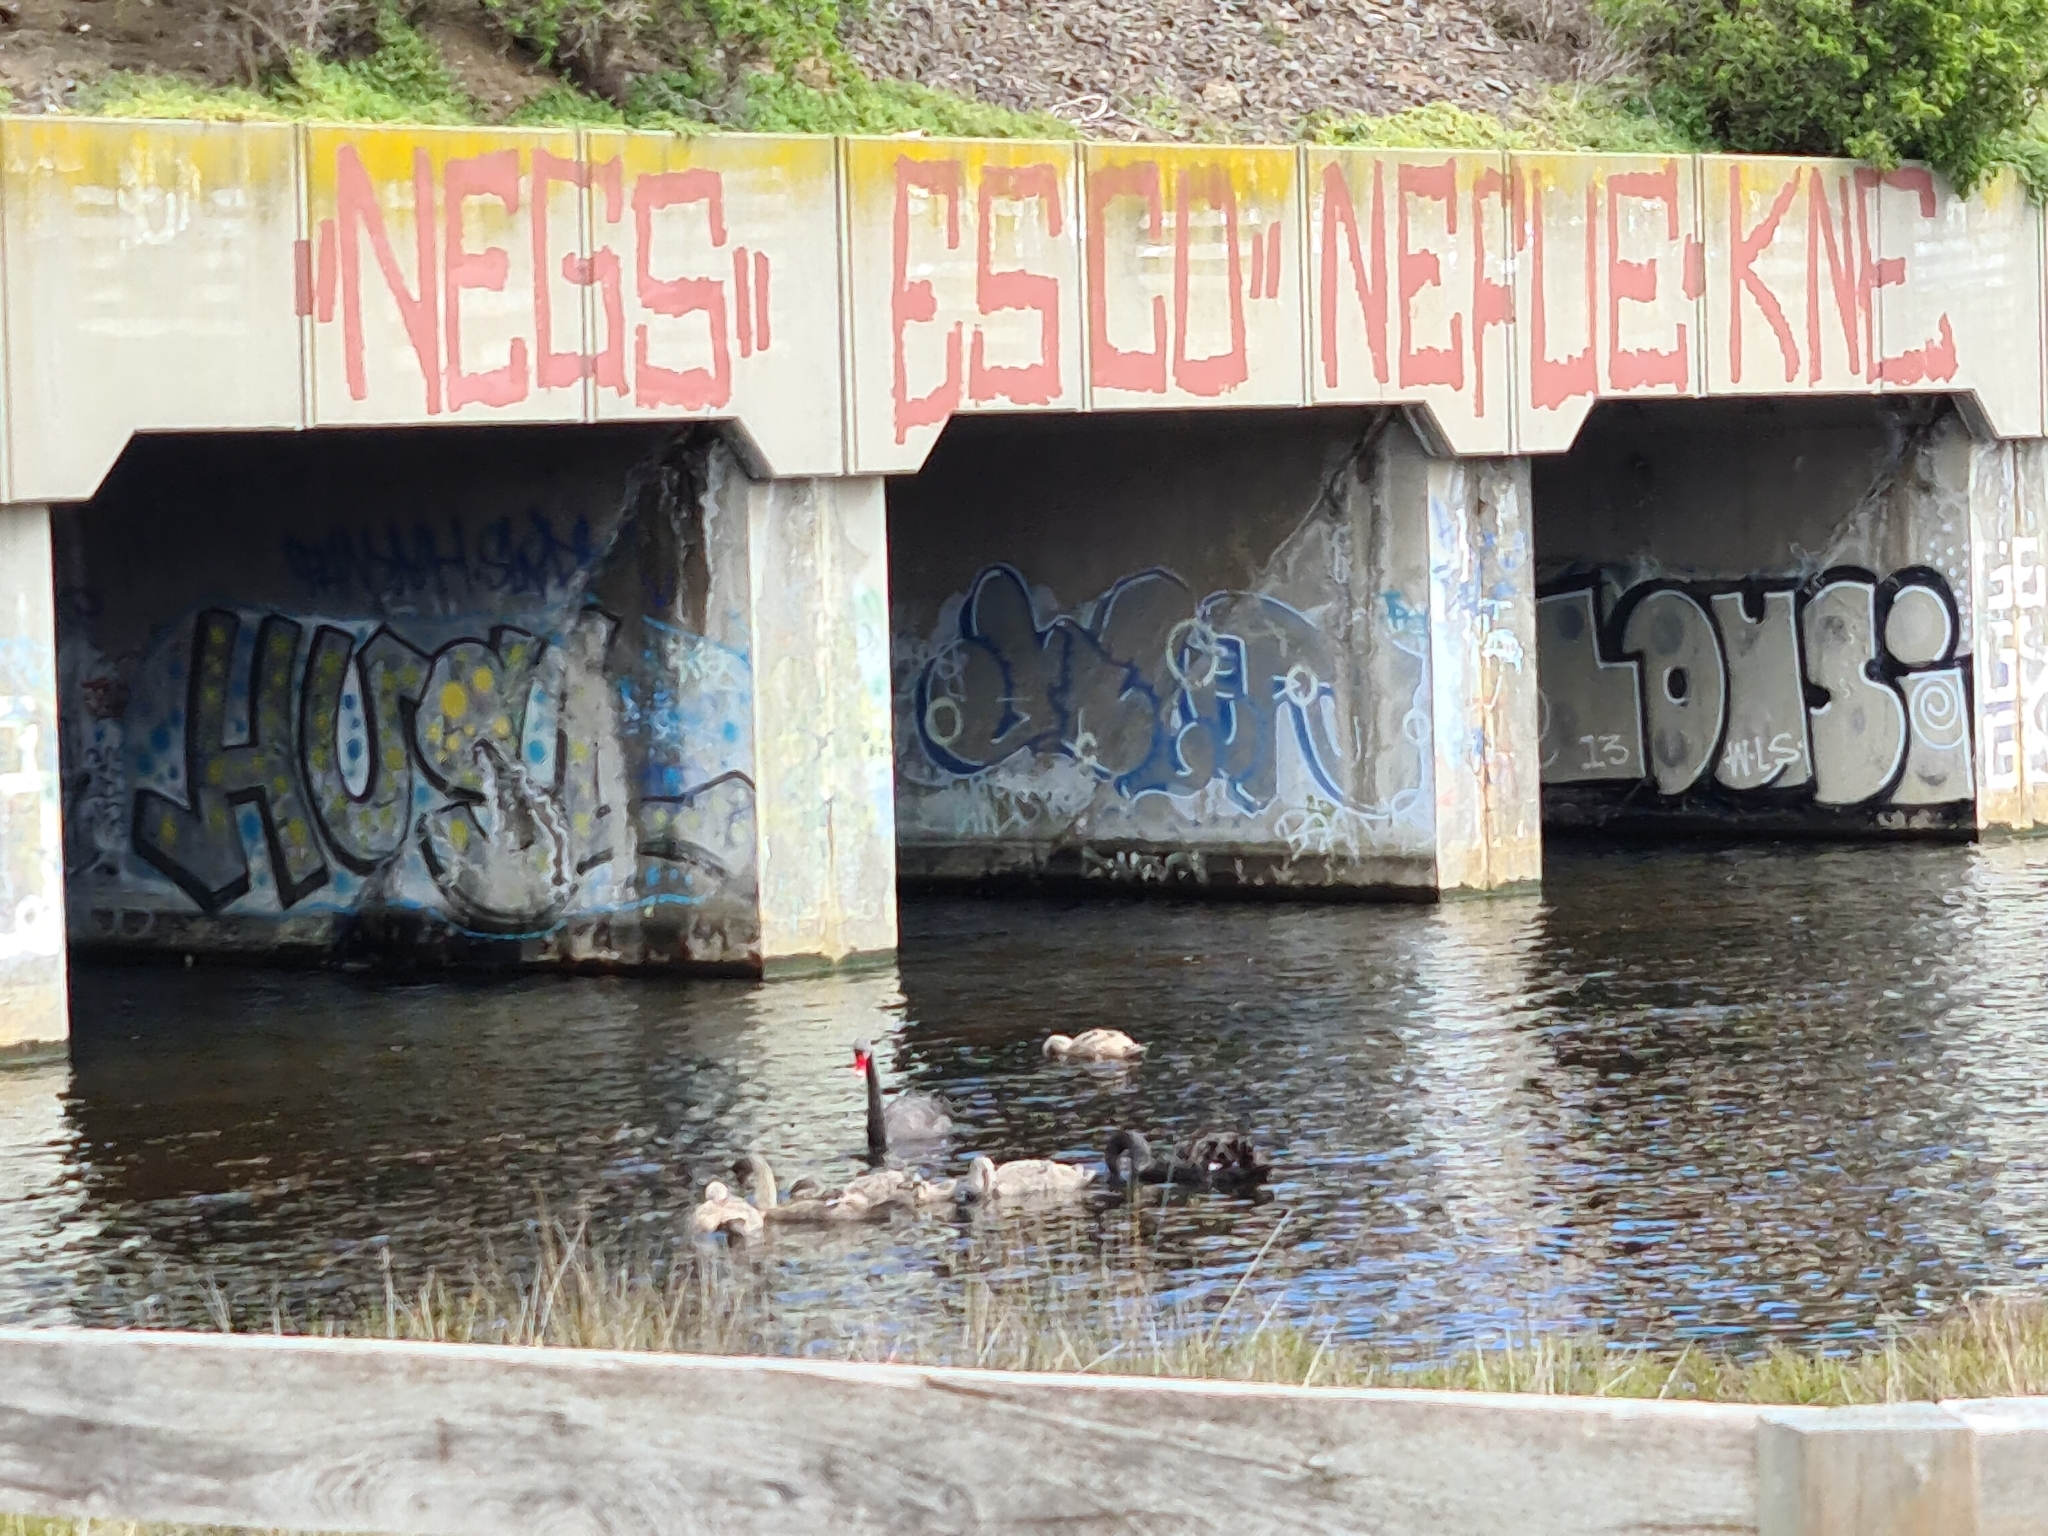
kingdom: Animalia
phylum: Chordata
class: Aves
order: Anseriformes
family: Anatidae
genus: Cygnus
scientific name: Cygnus atratus
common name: Black swan
